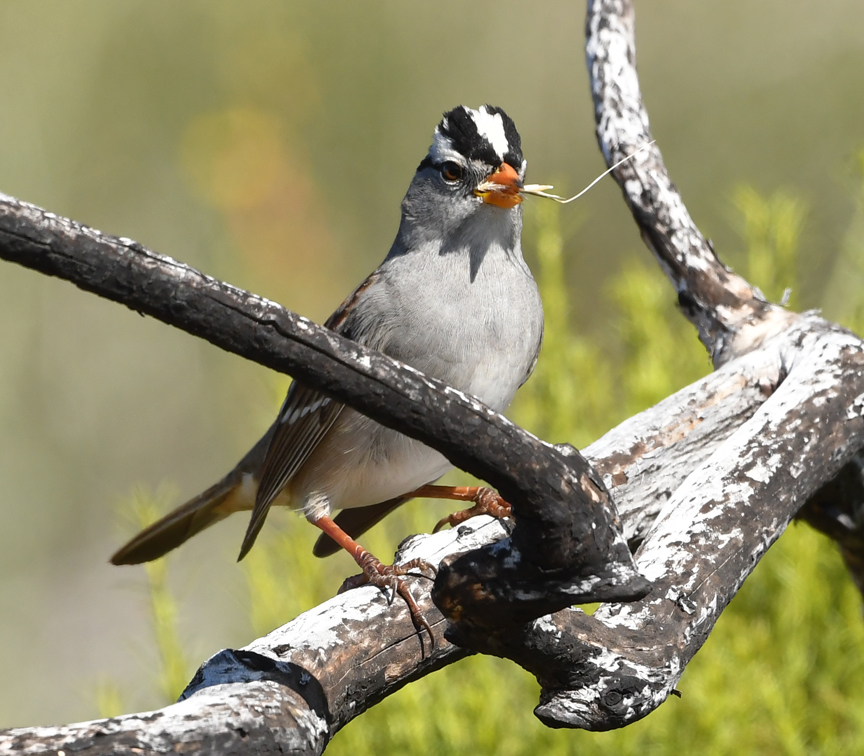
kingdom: Animalia
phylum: Chordata
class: Aves
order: Passeriformes
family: Passerellidae
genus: Zonotrichia
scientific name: Zonotrichia leucophrys
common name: White-crowned sparrow
